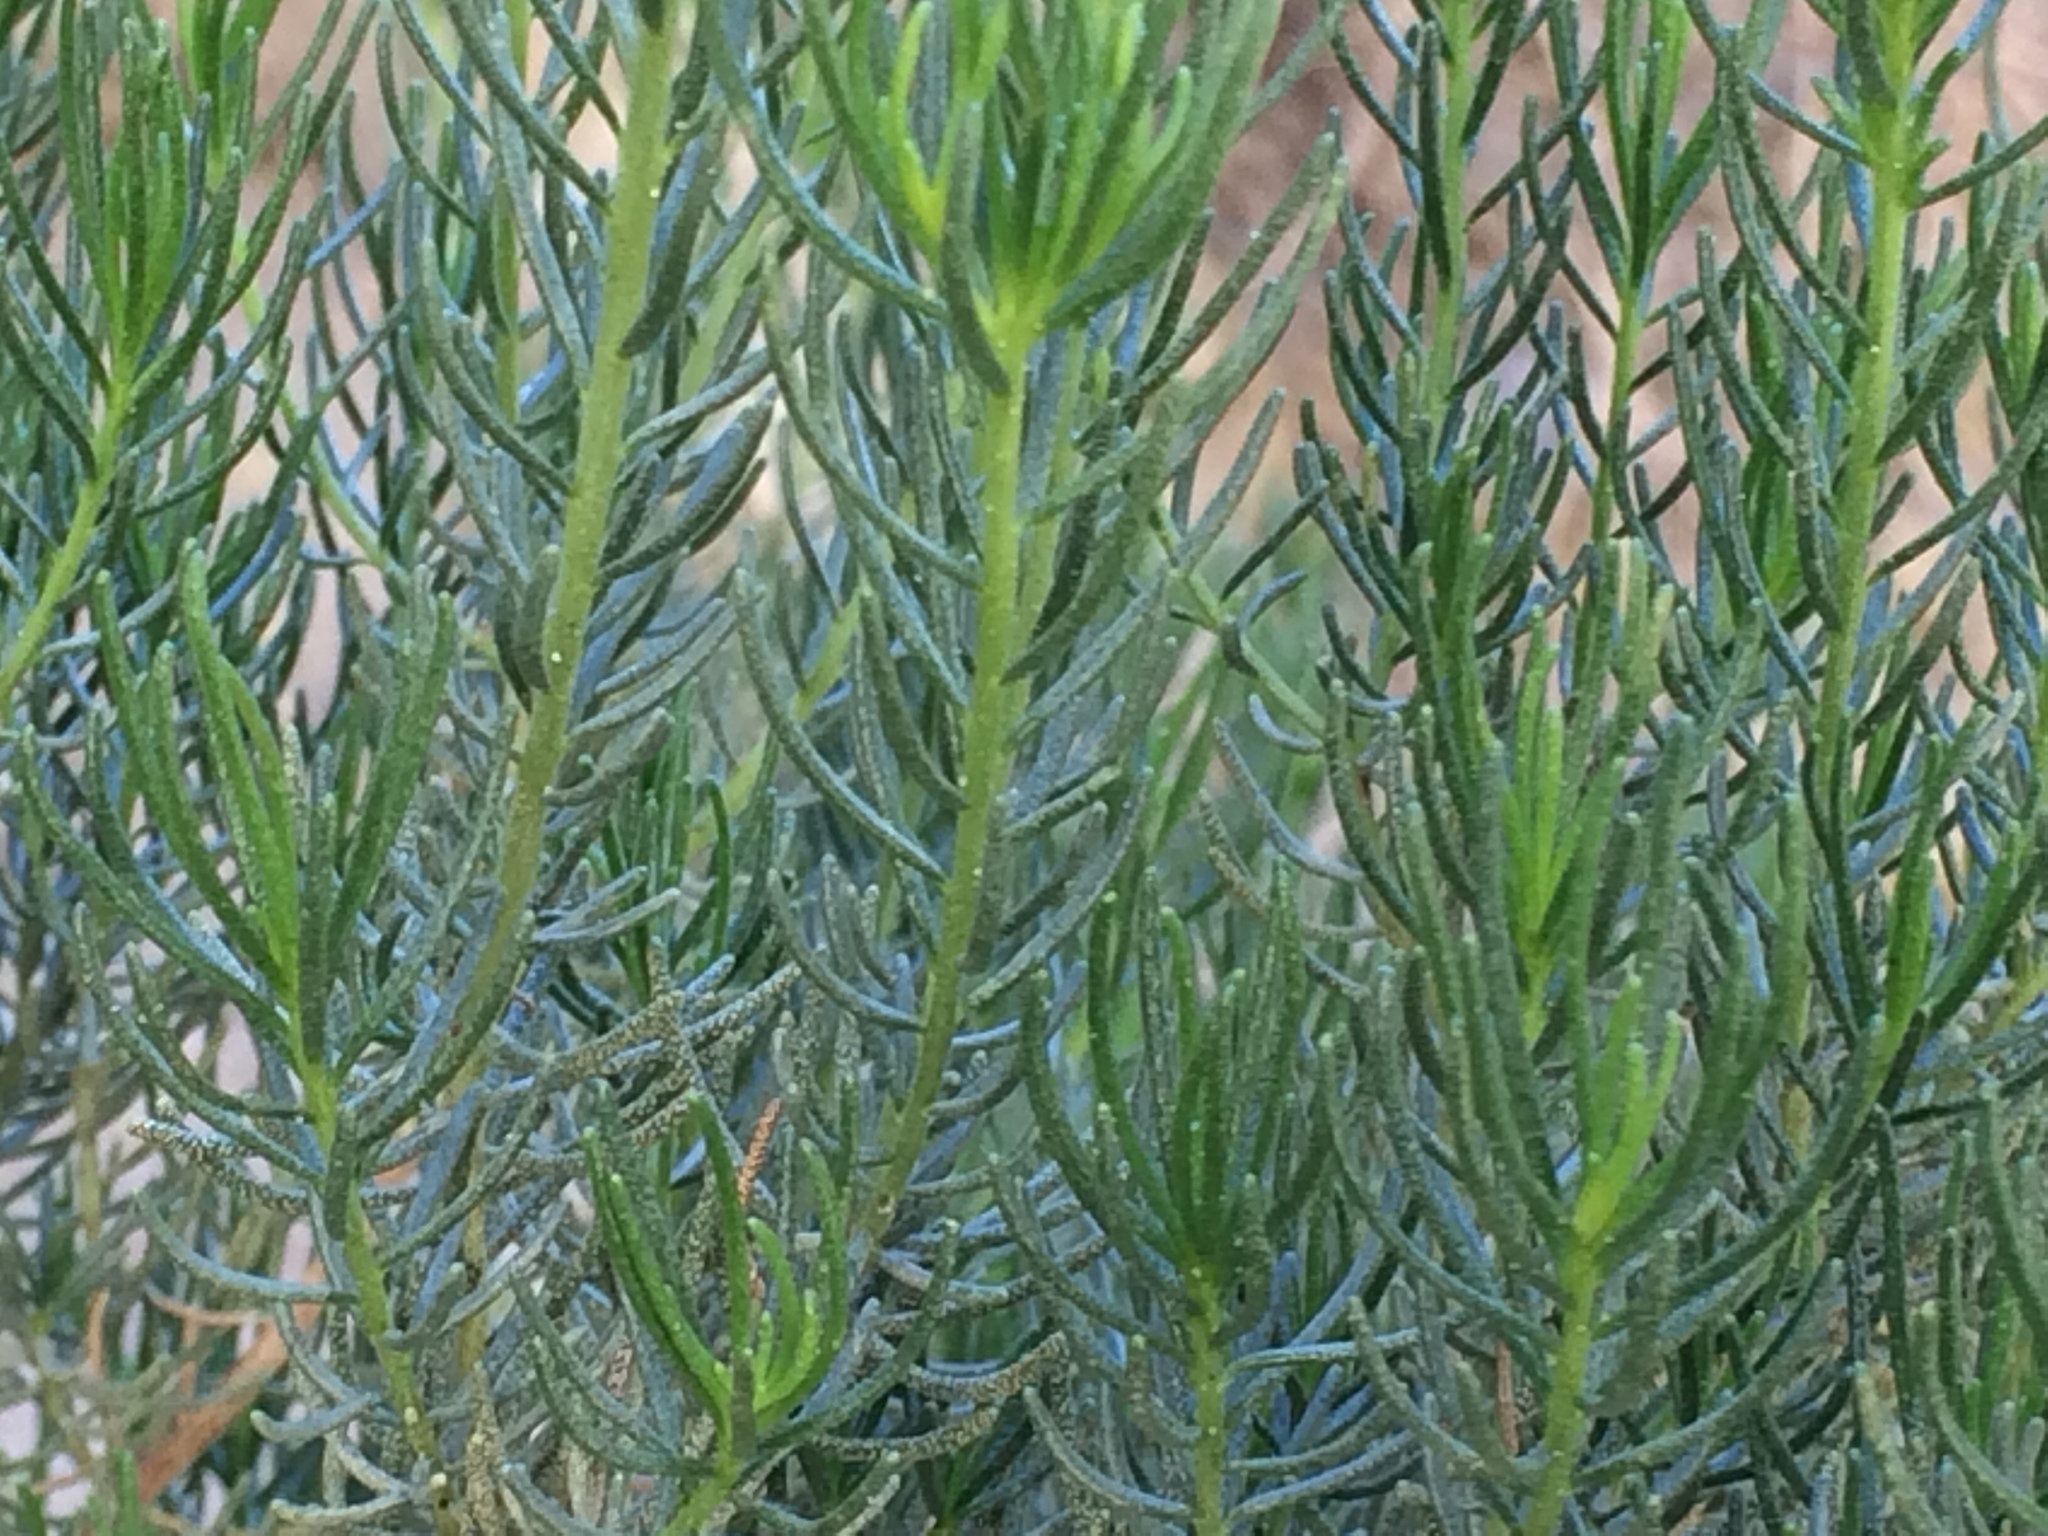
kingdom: Plantae
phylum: Tracheophyta
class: Magnoliopsida
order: Asterales
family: Asteraceae
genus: Peucephyllum
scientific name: Peucephyllum schottii
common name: Pygmy-cedar
